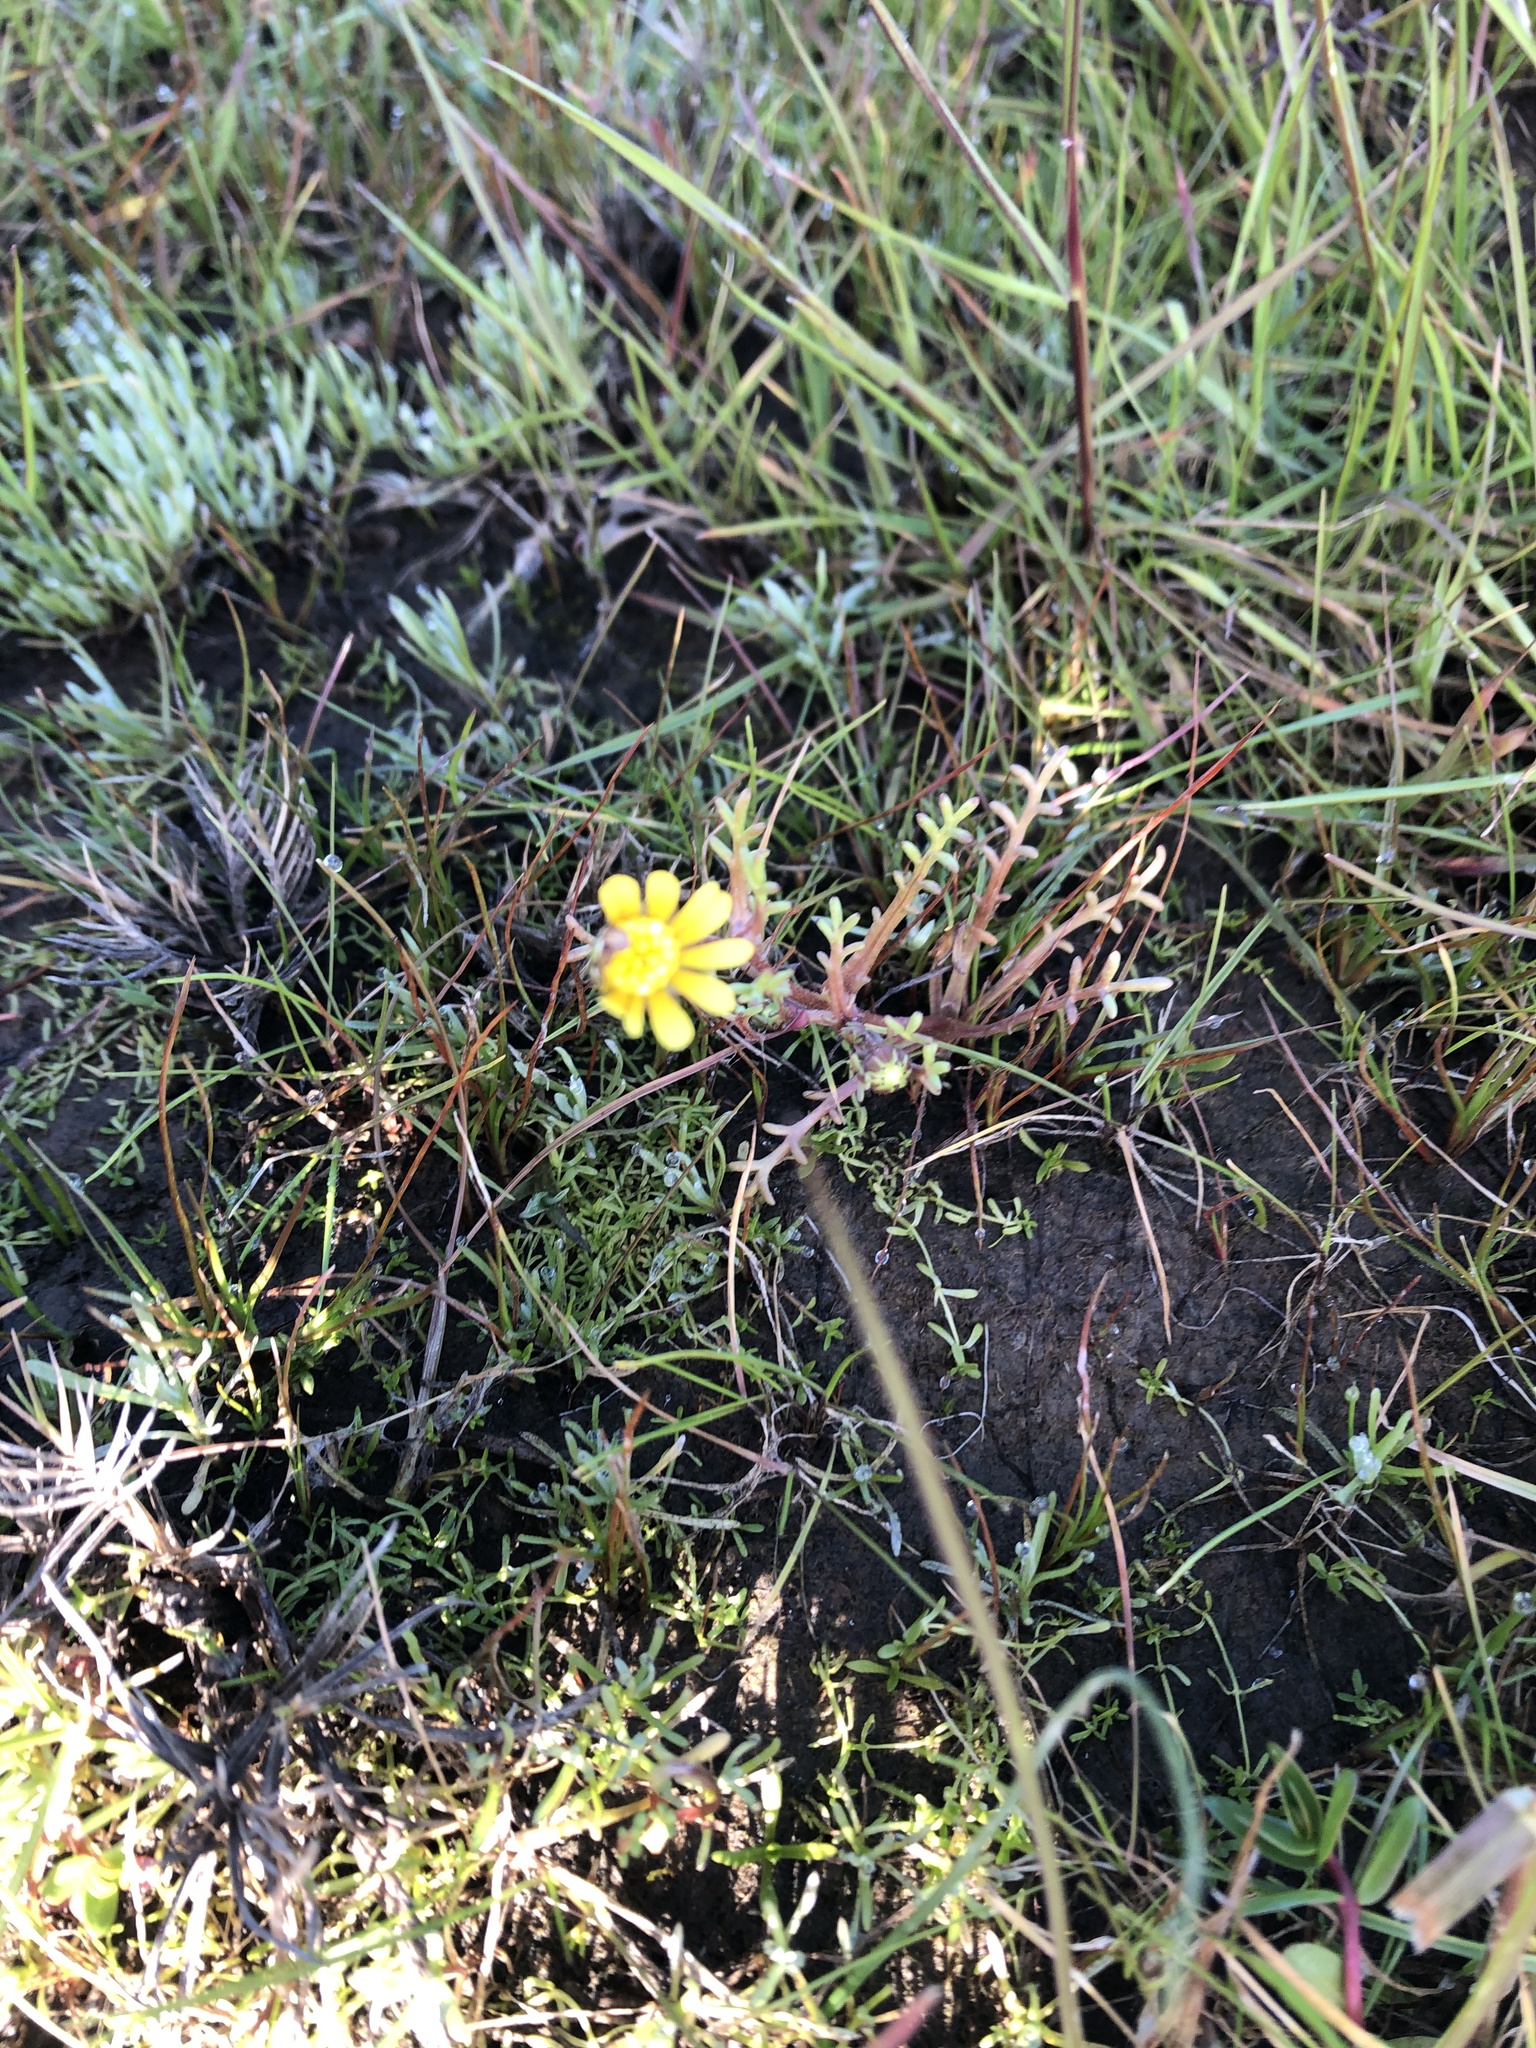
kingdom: Plantae
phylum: Tracheophyta
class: Magnoliopsida
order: Asterales
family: Asteraceae
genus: Blennosperma
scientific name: Blennosperma nanum
